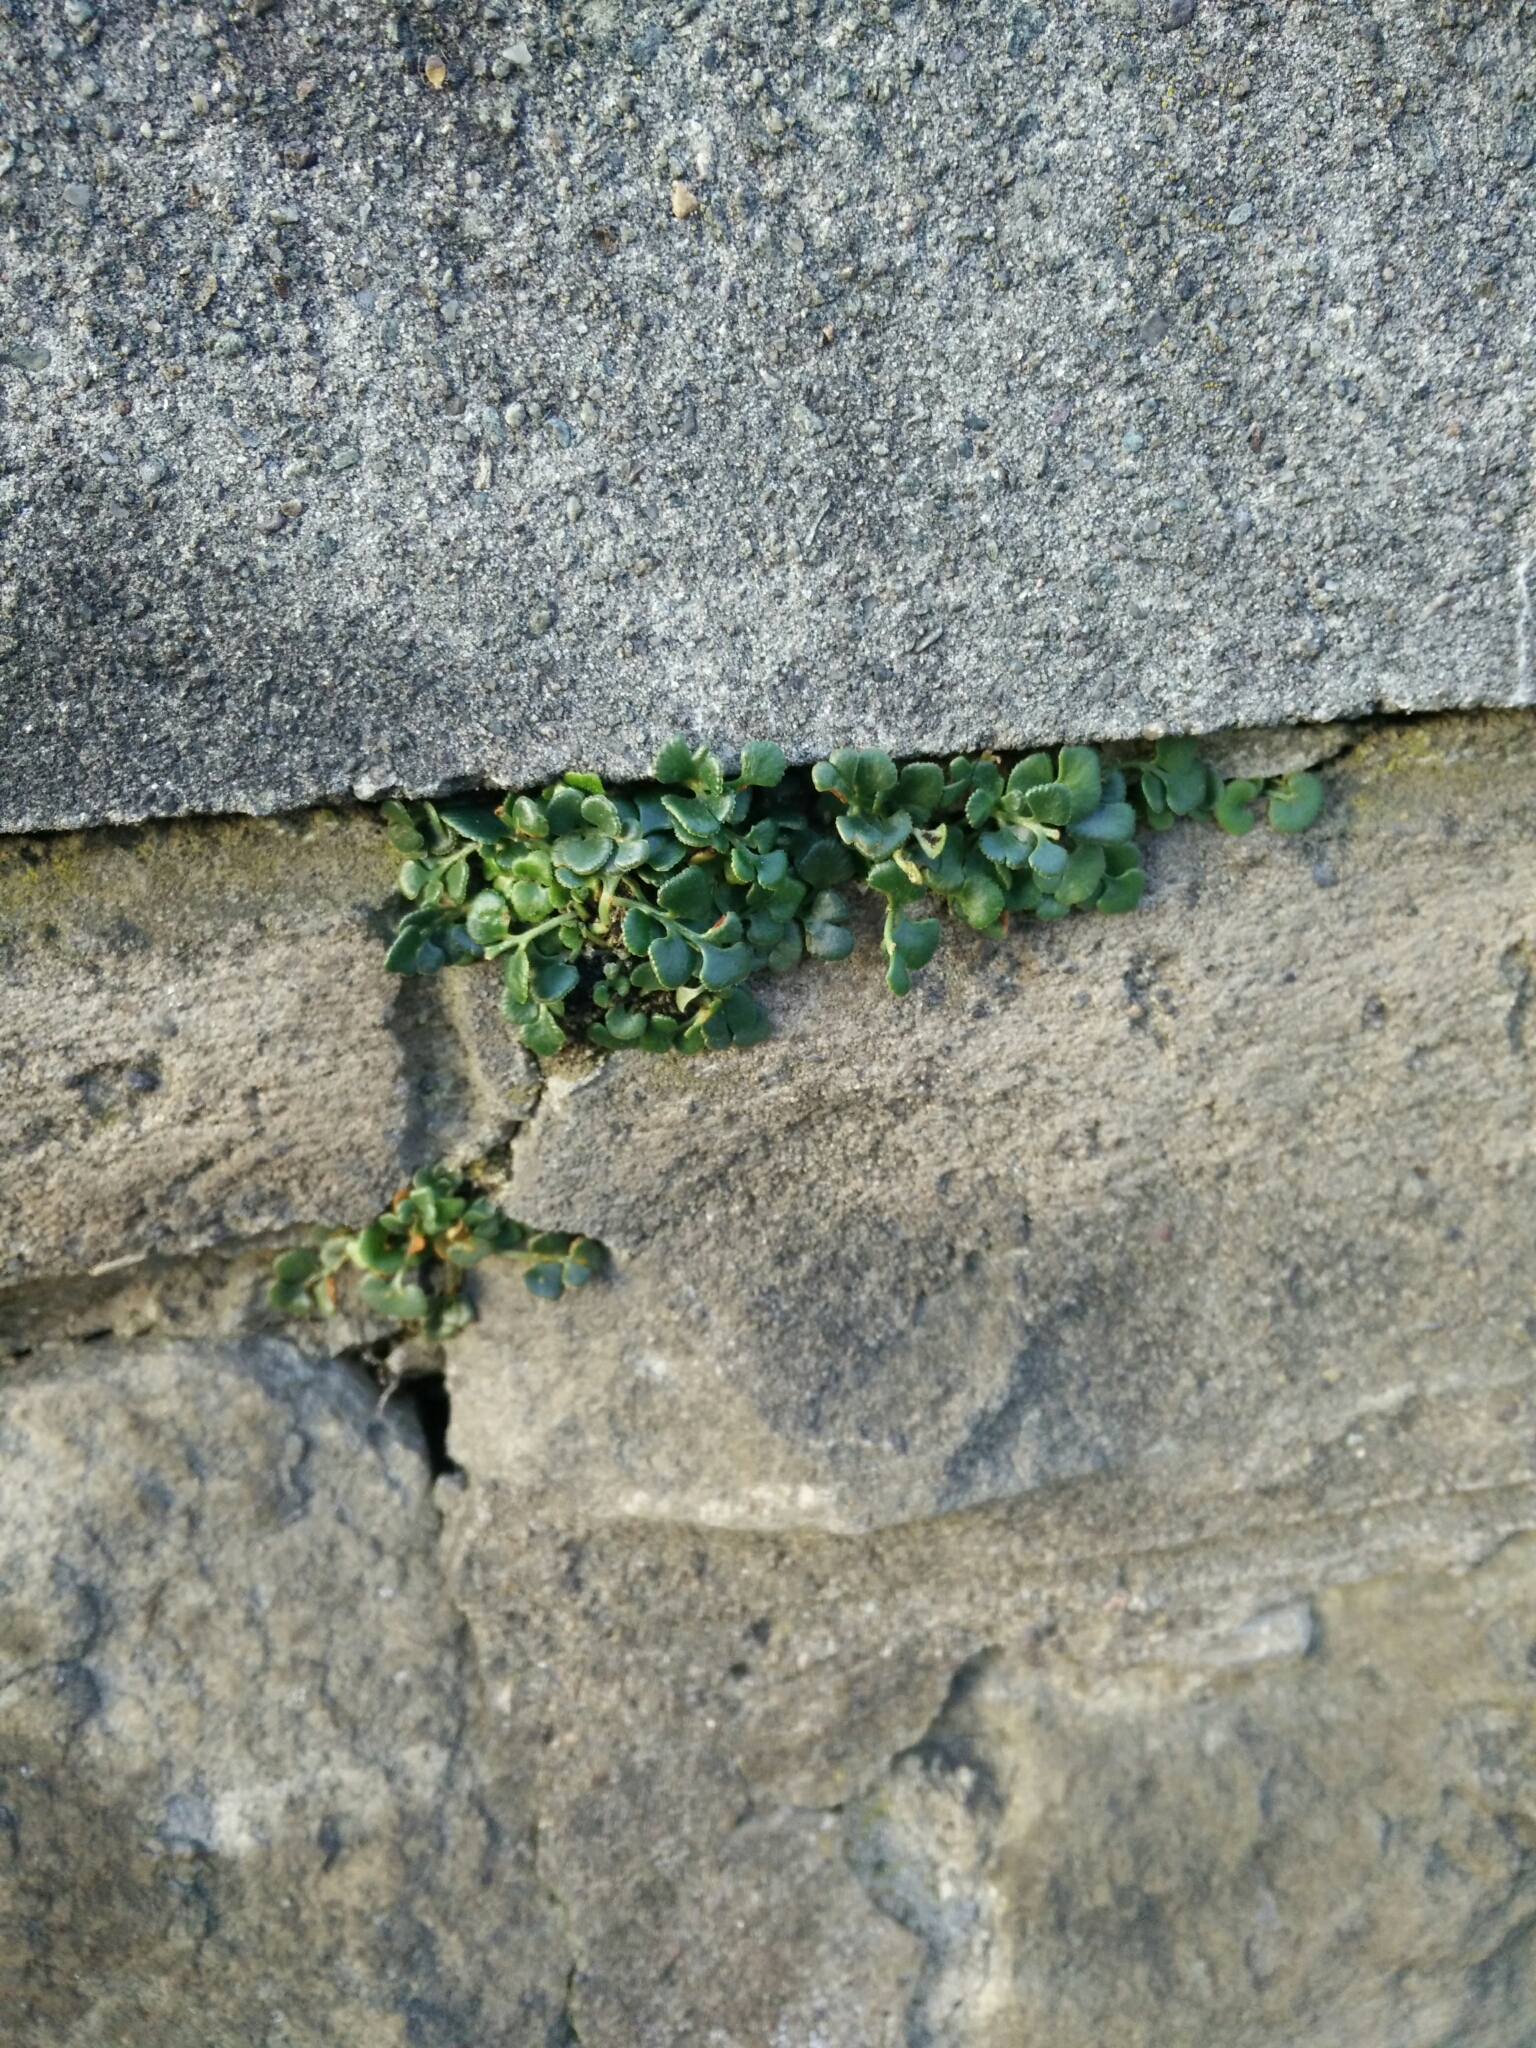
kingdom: Plantae
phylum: Tracheophyta
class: Polypodiopsida
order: Polypodiales
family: Aspleniaceae
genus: Asplenium
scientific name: Asplenium ruta-muraria
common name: Wall-rue
